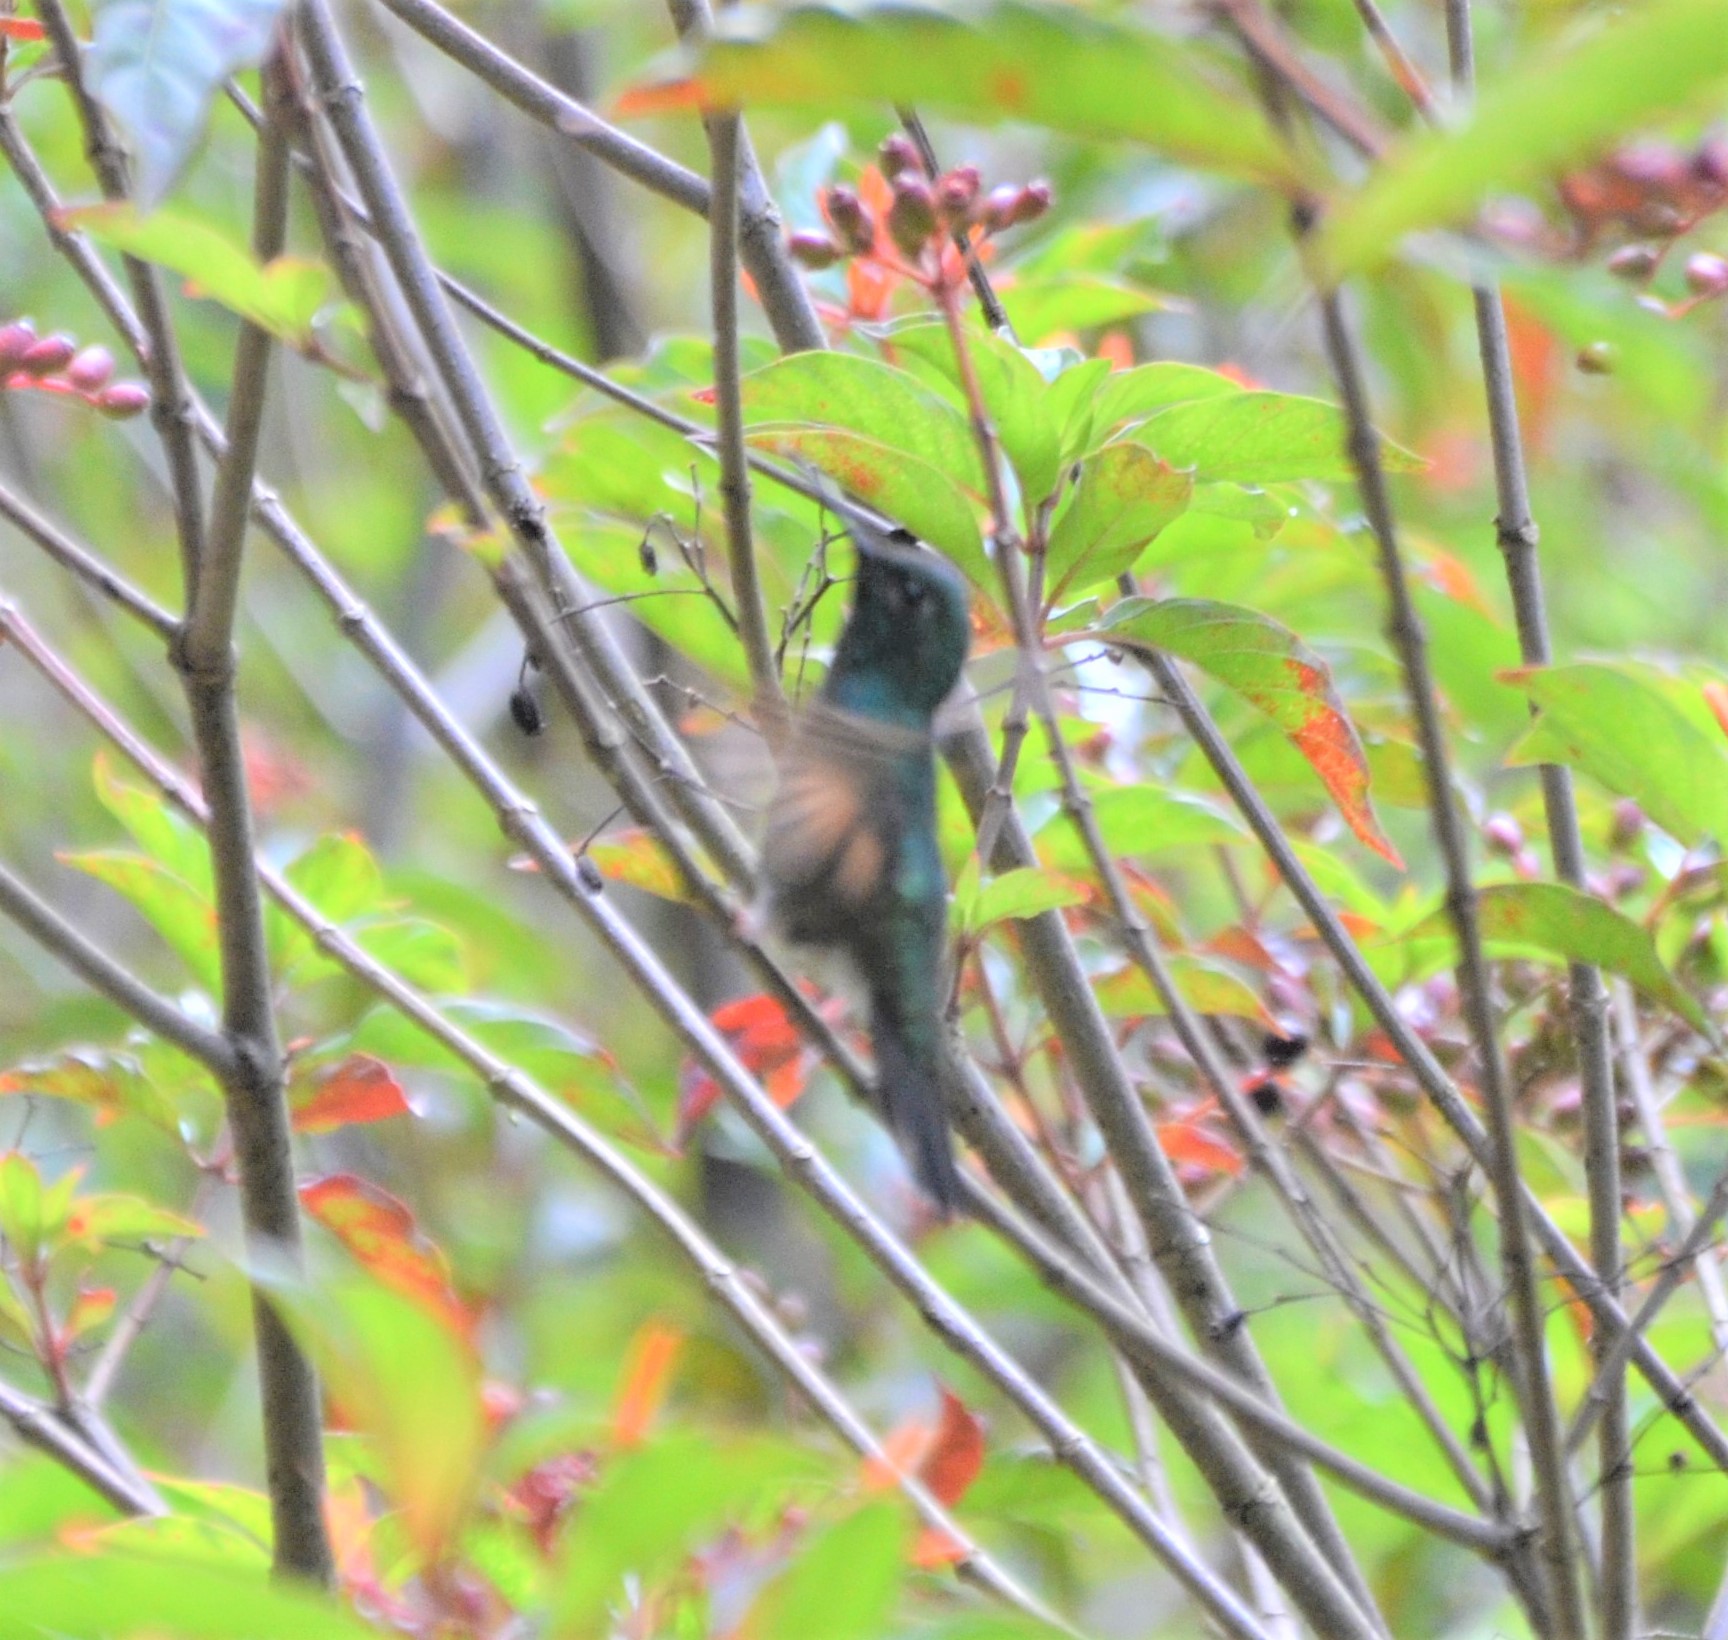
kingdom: Animalia
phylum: Chordata
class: Aves
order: Apodiformes
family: Trochilidae
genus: Anthracothorax
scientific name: Anthracothorax prevostii
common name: Green-breasted mango
